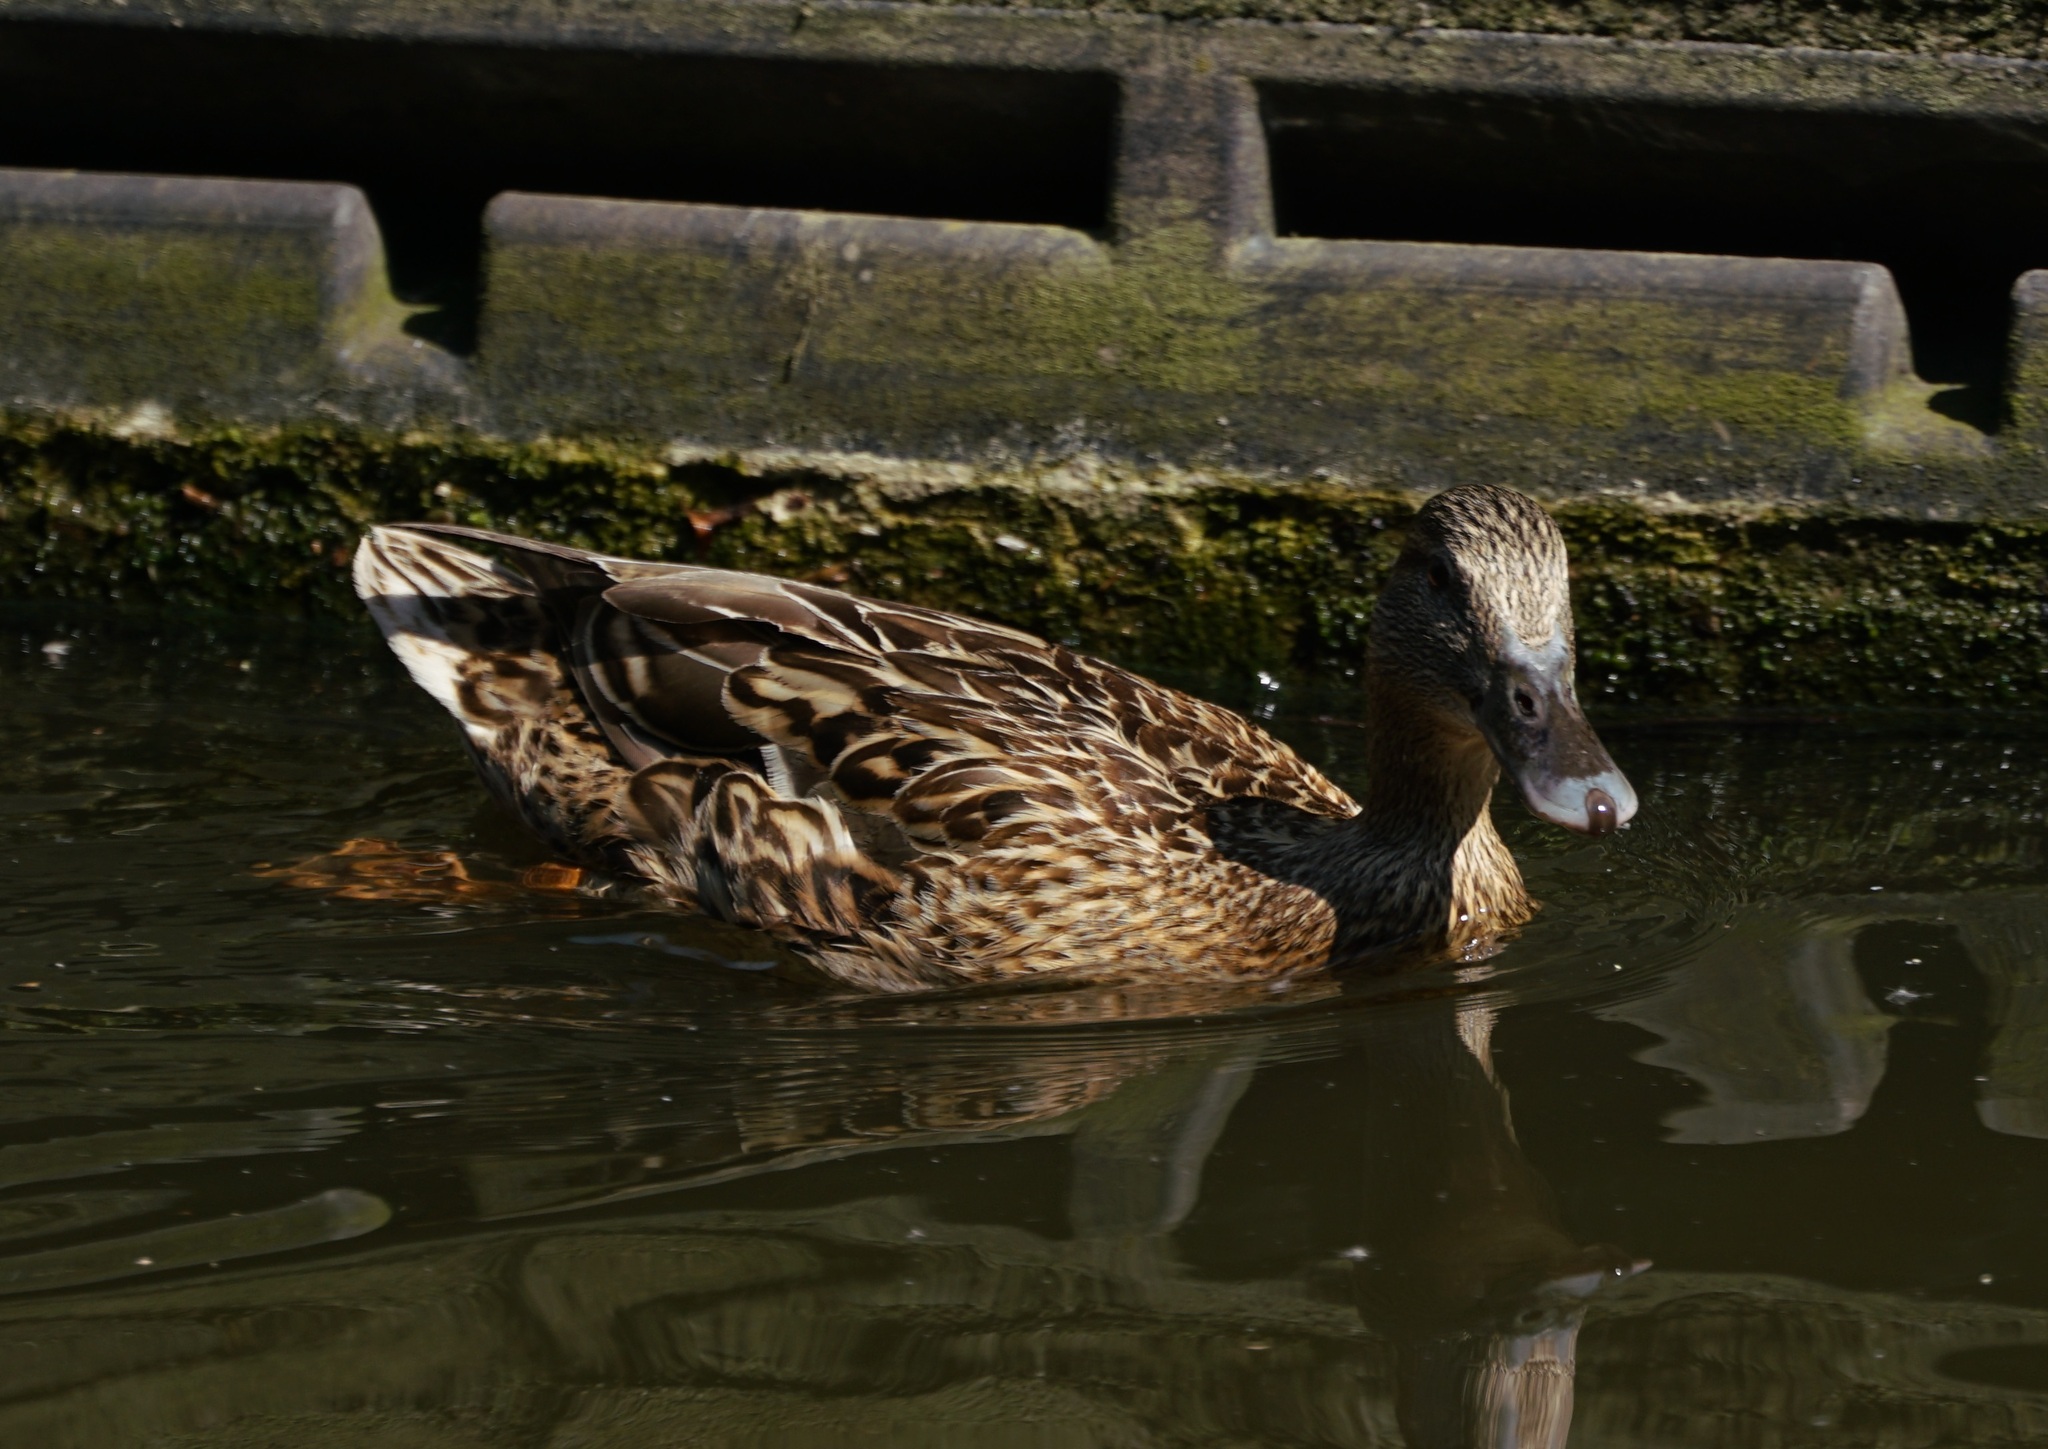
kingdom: Animalia
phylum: Chordata
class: Aves
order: Anseriformes
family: Anatidae
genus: Anas
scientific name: Anas platyrhynchos
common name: Mallard
